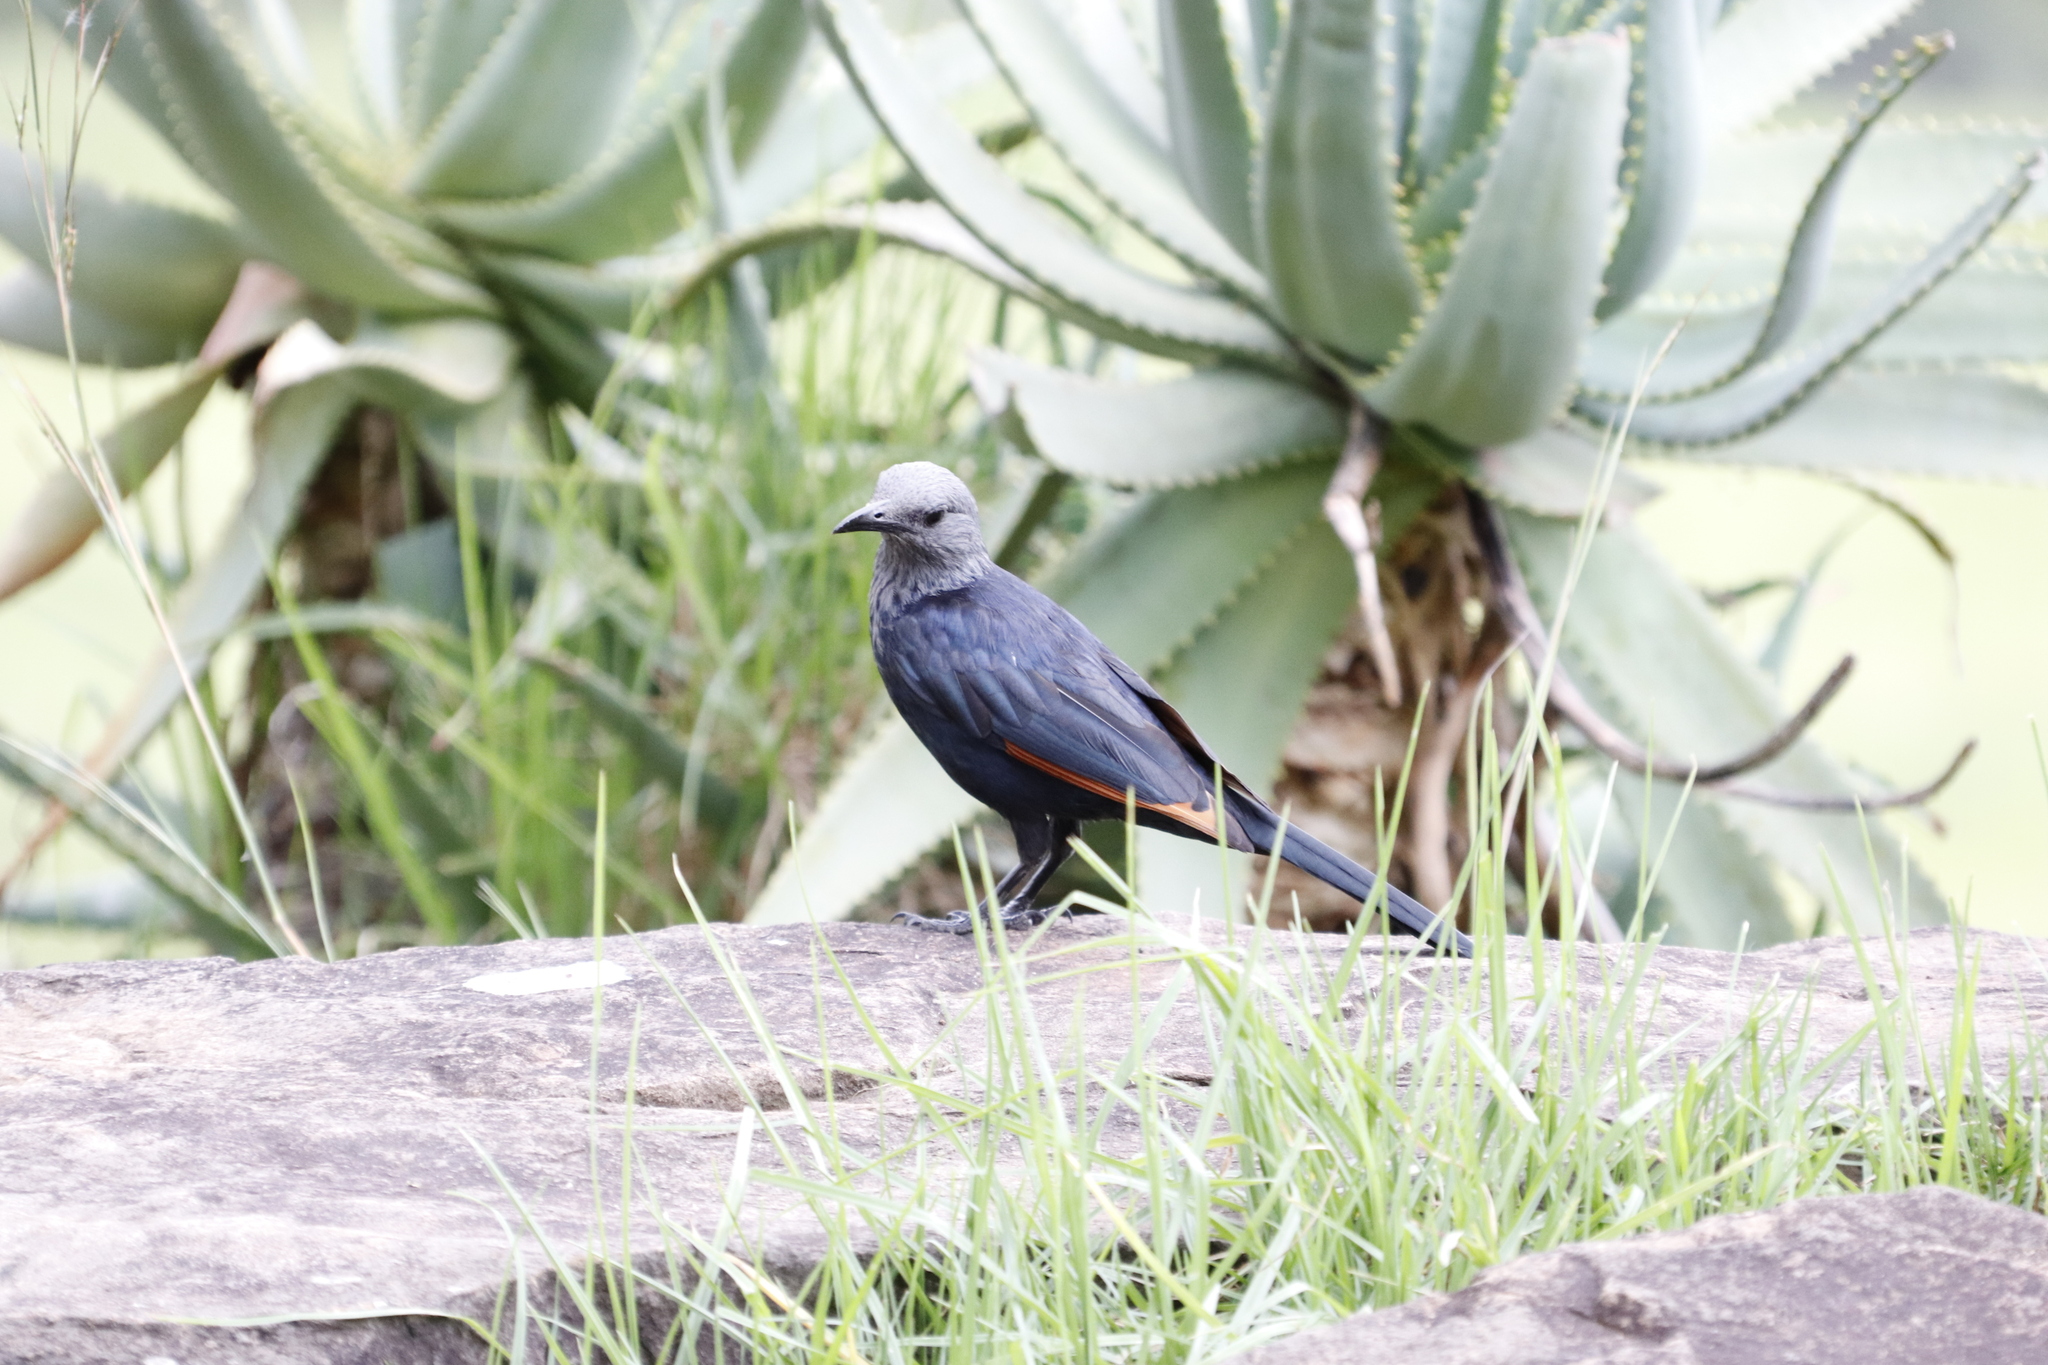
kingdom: Animalia
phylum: Chordata
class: Aves
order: Passeriformes
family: Sturnidae
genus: Onychognathus
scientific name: Onychognathus morio
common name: Red-winged starling
